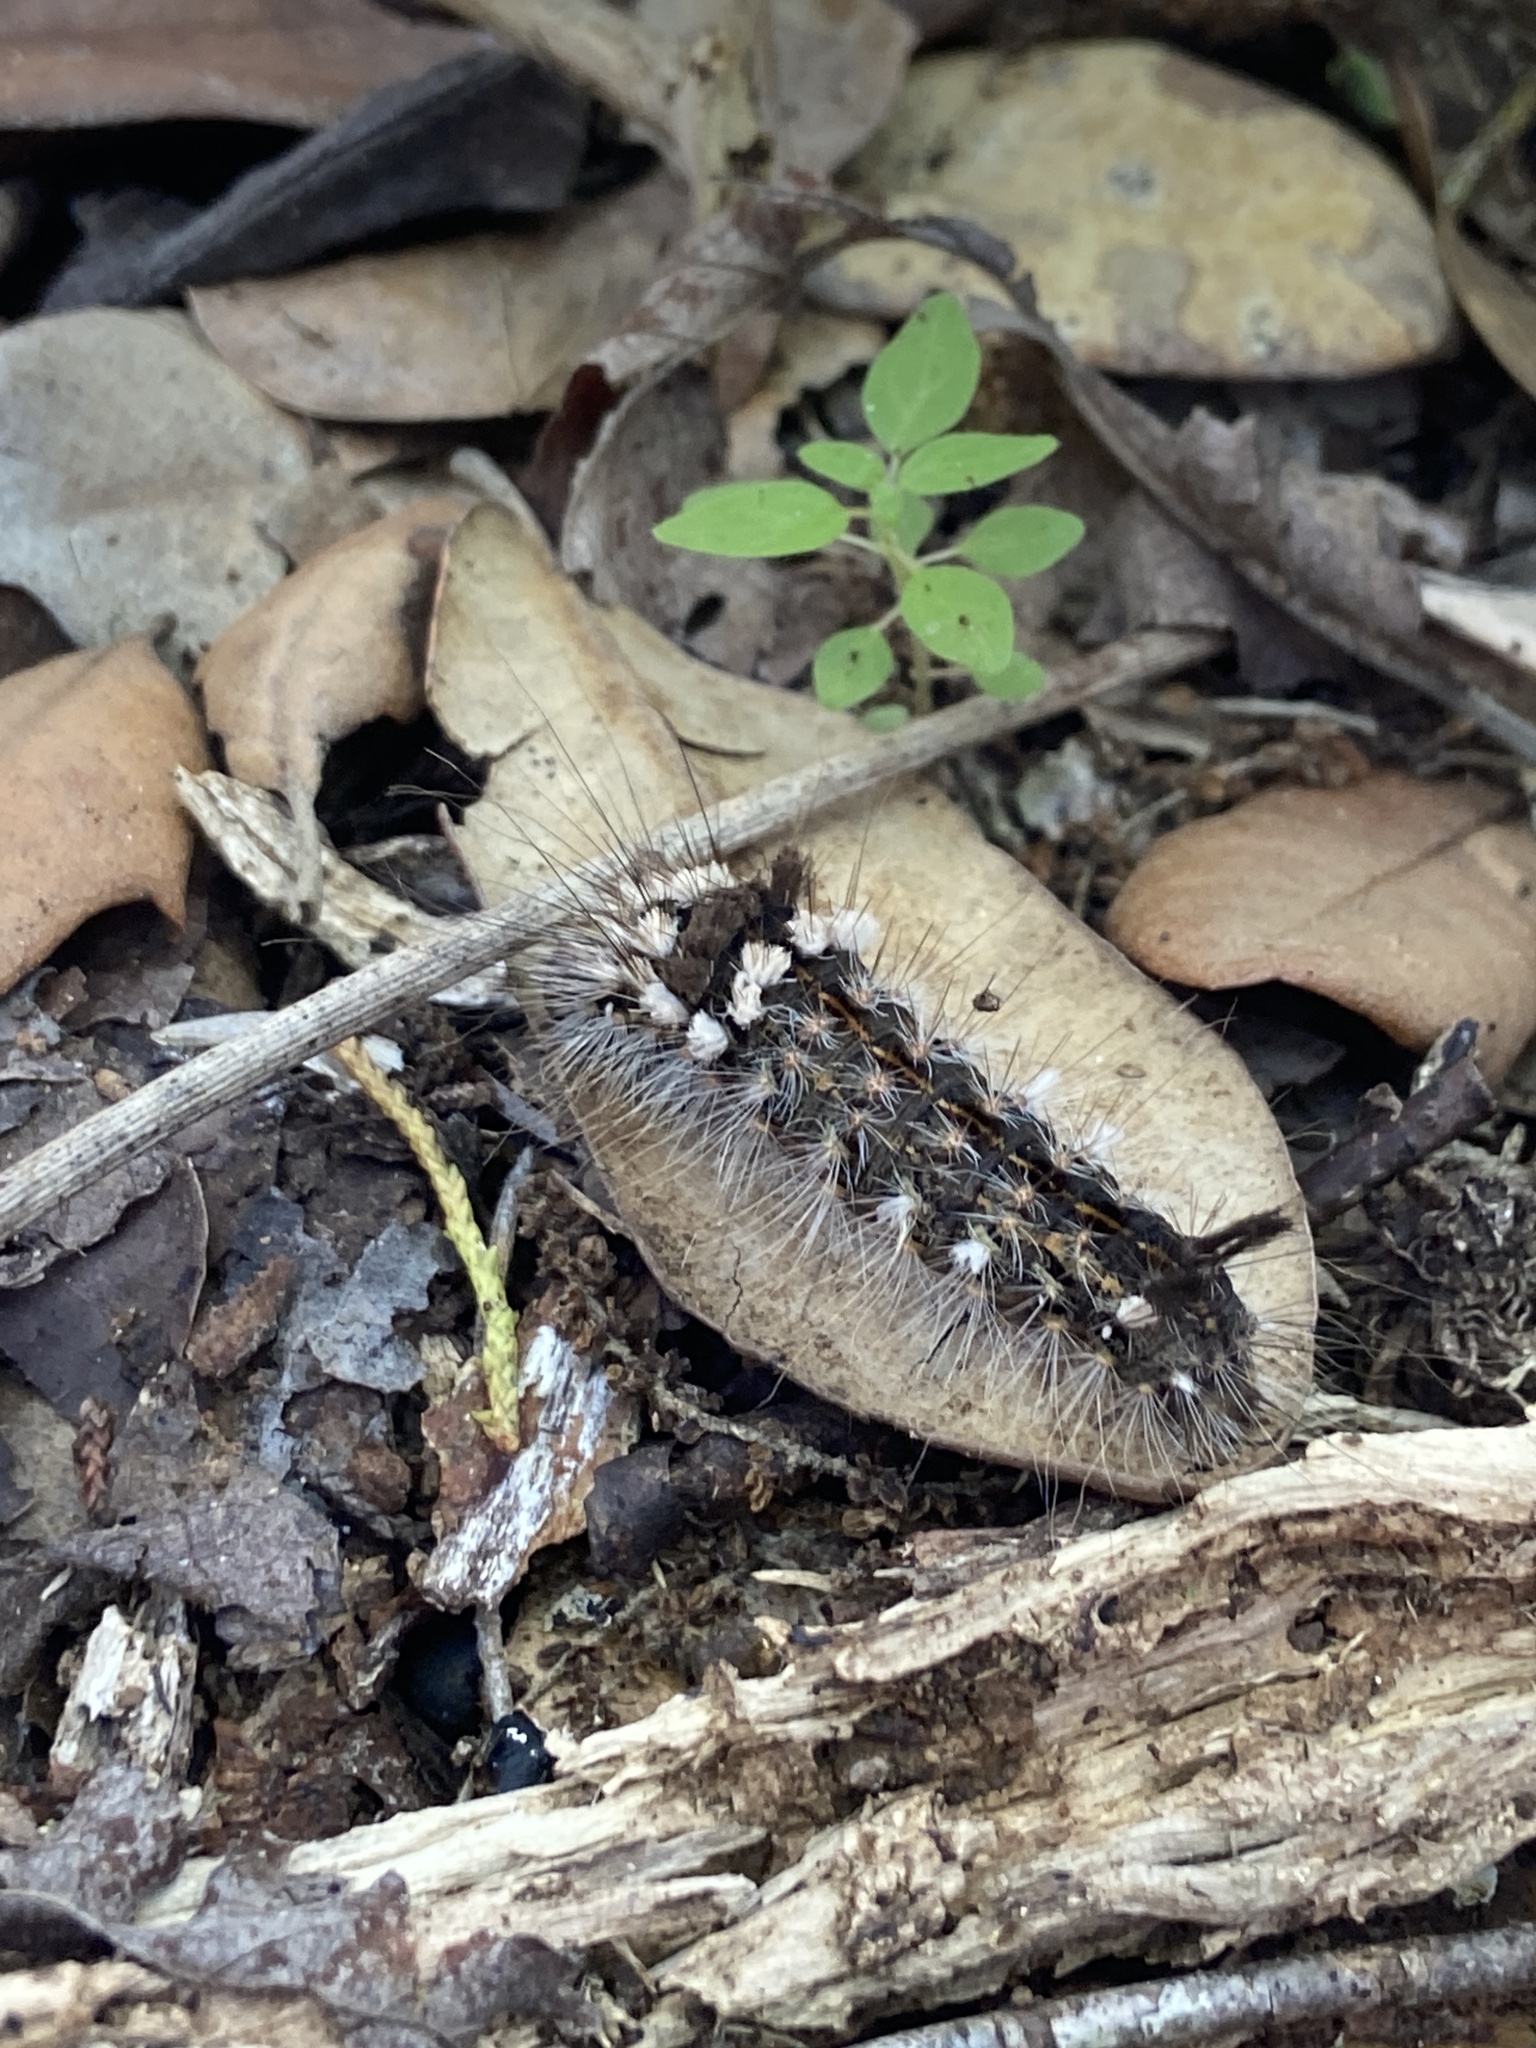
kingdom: Animalia
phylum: Arthropoda
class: Insecta
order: Lepidoptera
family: Noctuidae
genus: Acronicta
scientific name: Acronicta impleta
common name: Powdered dagger
